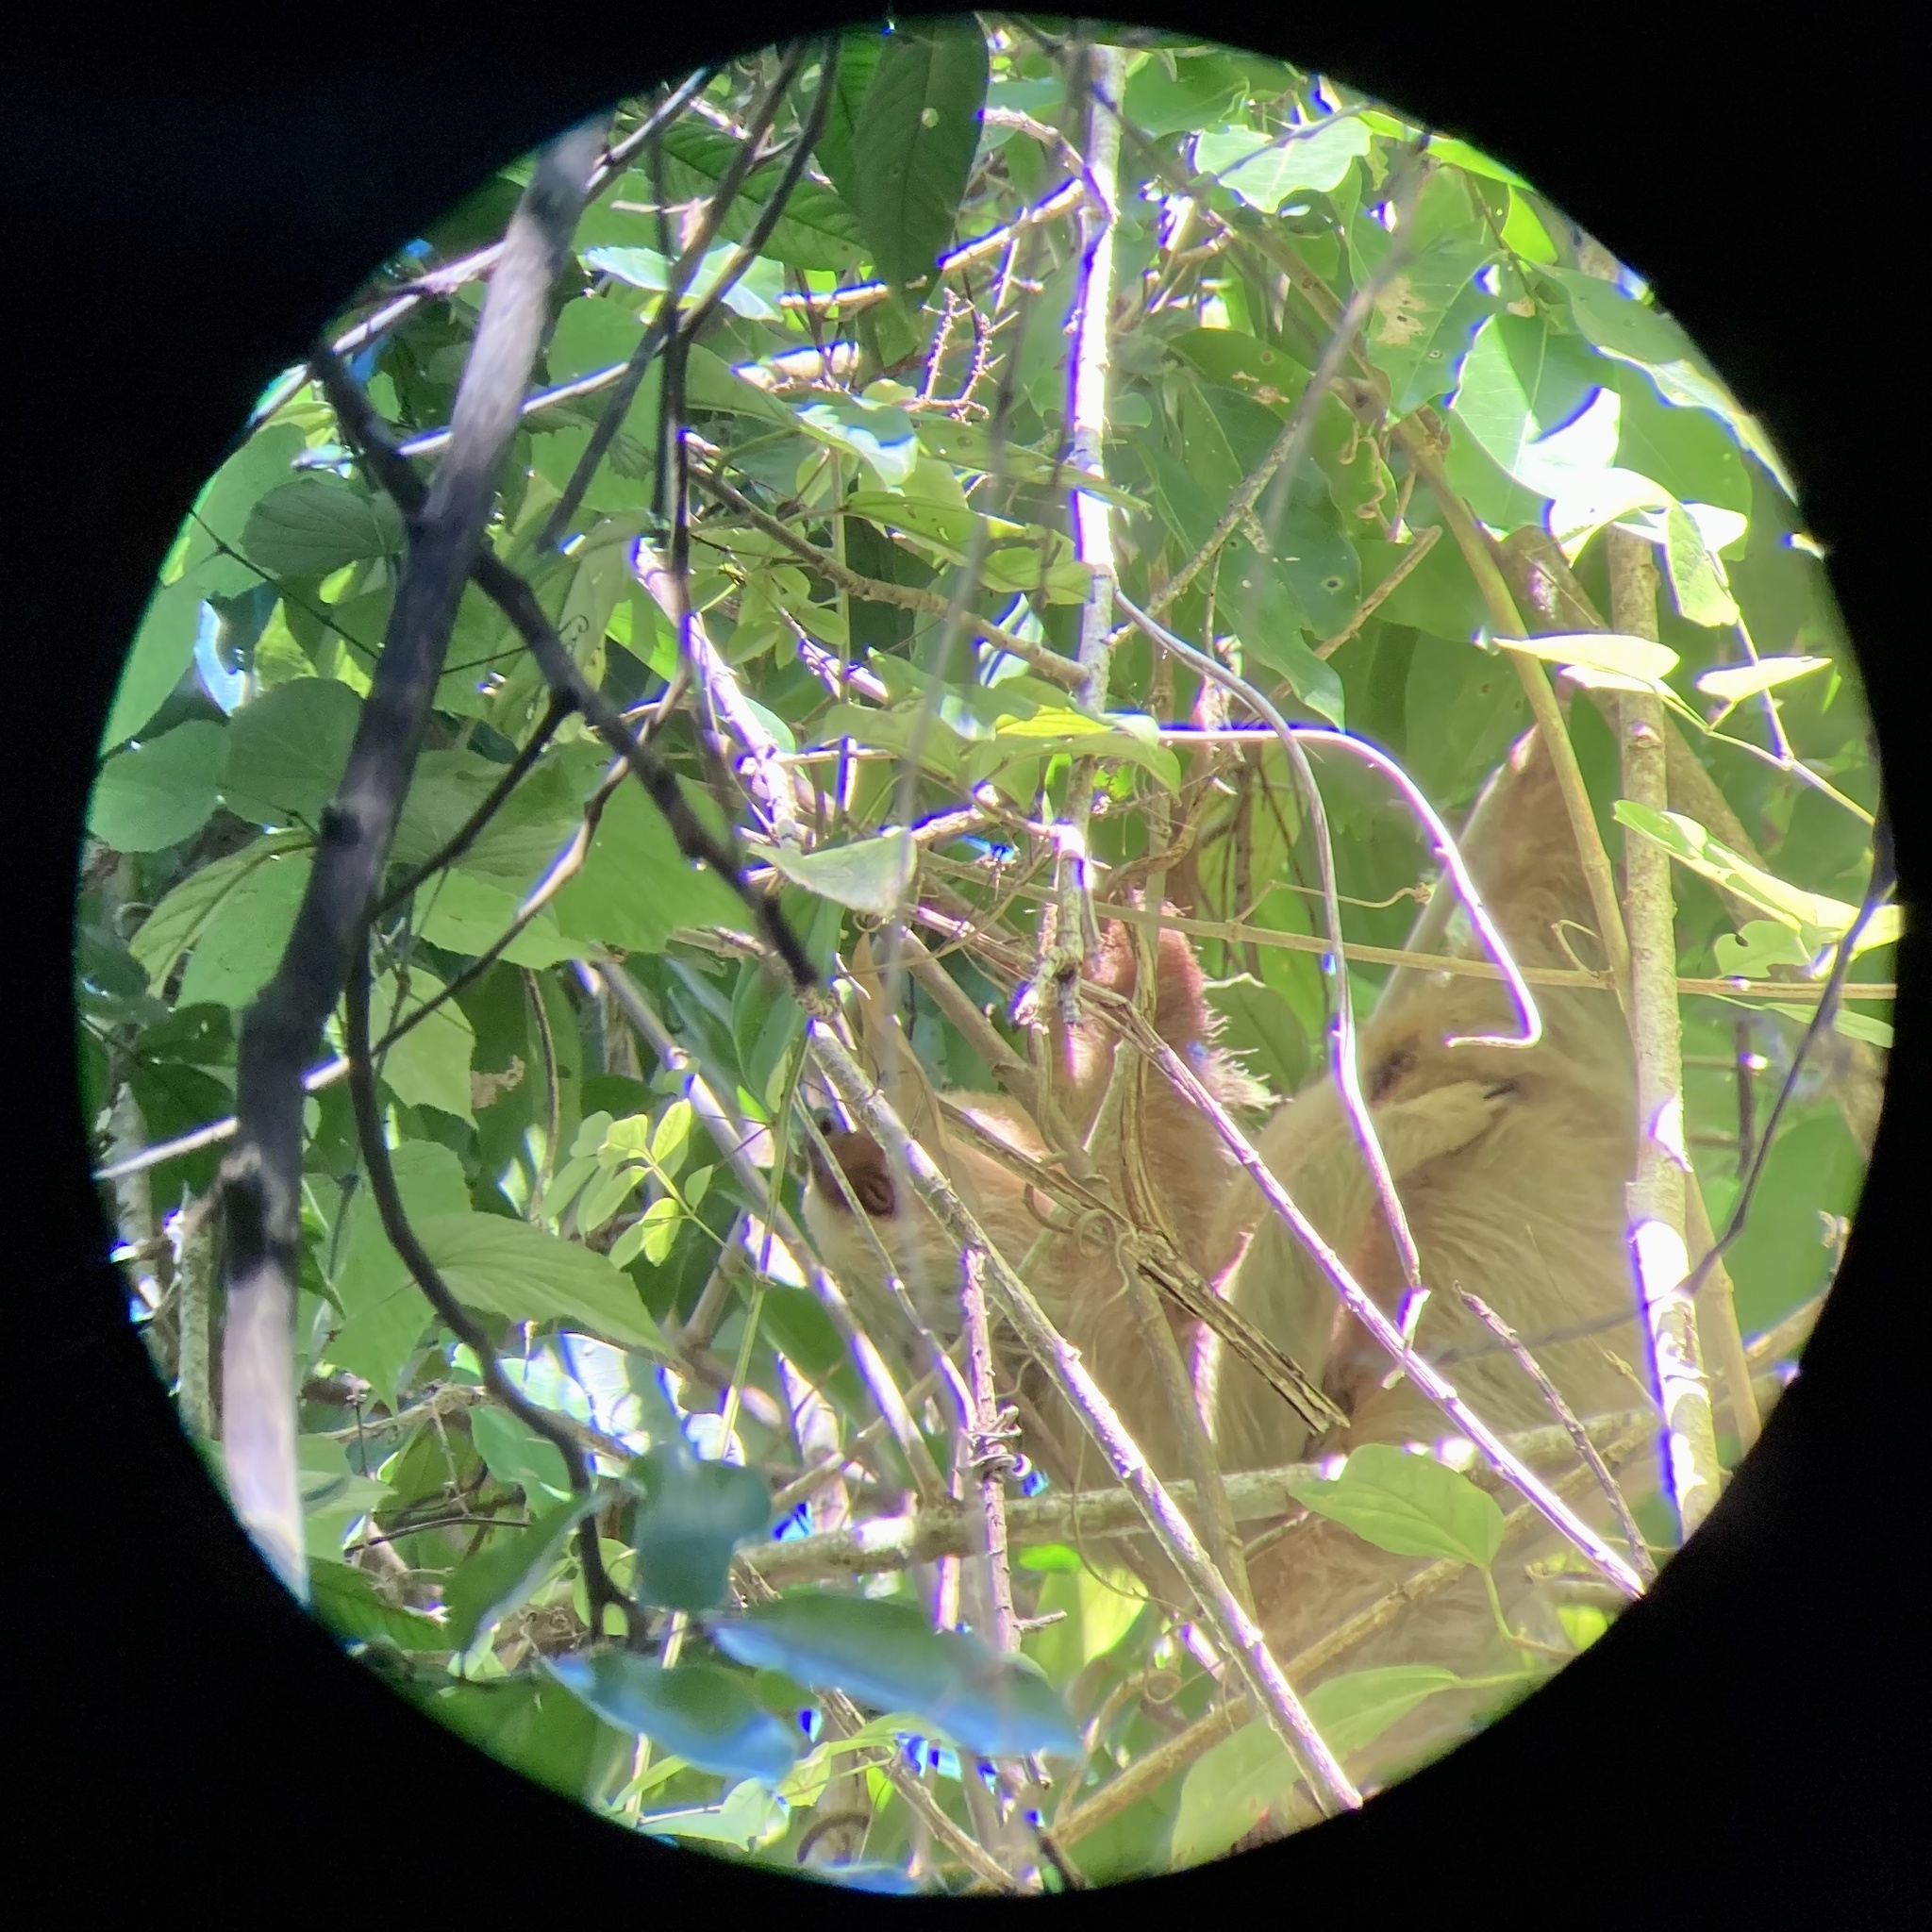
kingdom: Animalia
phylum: Chordata
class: Mammalia
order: Pilosa
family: Megalonychidae
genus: Choloepus
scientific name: Choloepus hoffmanni
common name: Hoffmann's two-toed sloth
